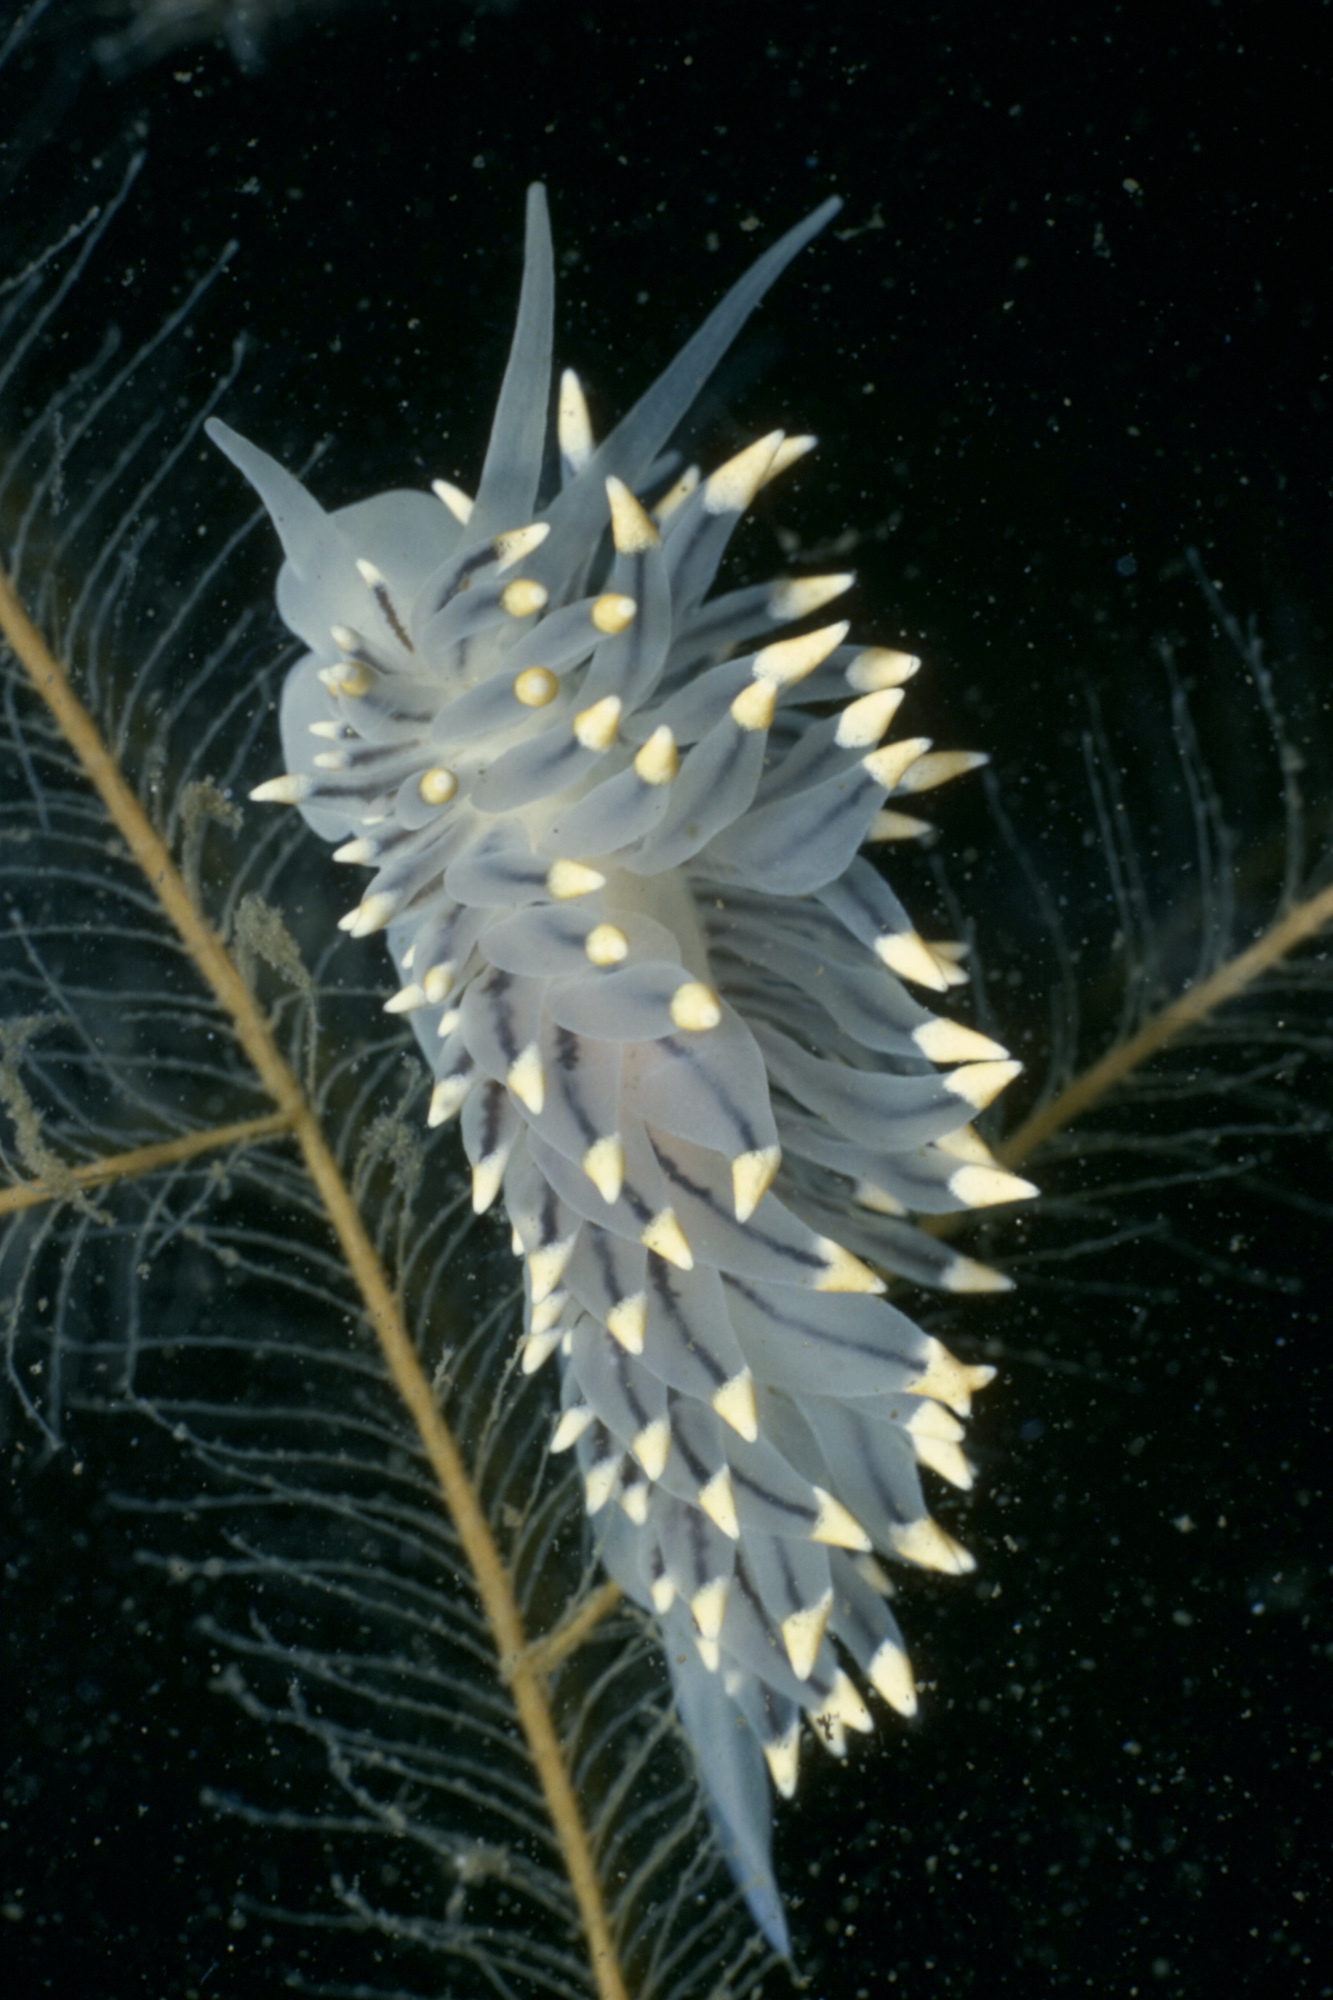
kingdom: Animalia
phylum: Mollusca
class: Gastropoda
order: Nudibranchia
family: Eubranchidae
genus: Eubranchus
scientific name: Eubranchus tricolor
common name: Painted balloon aeolis
